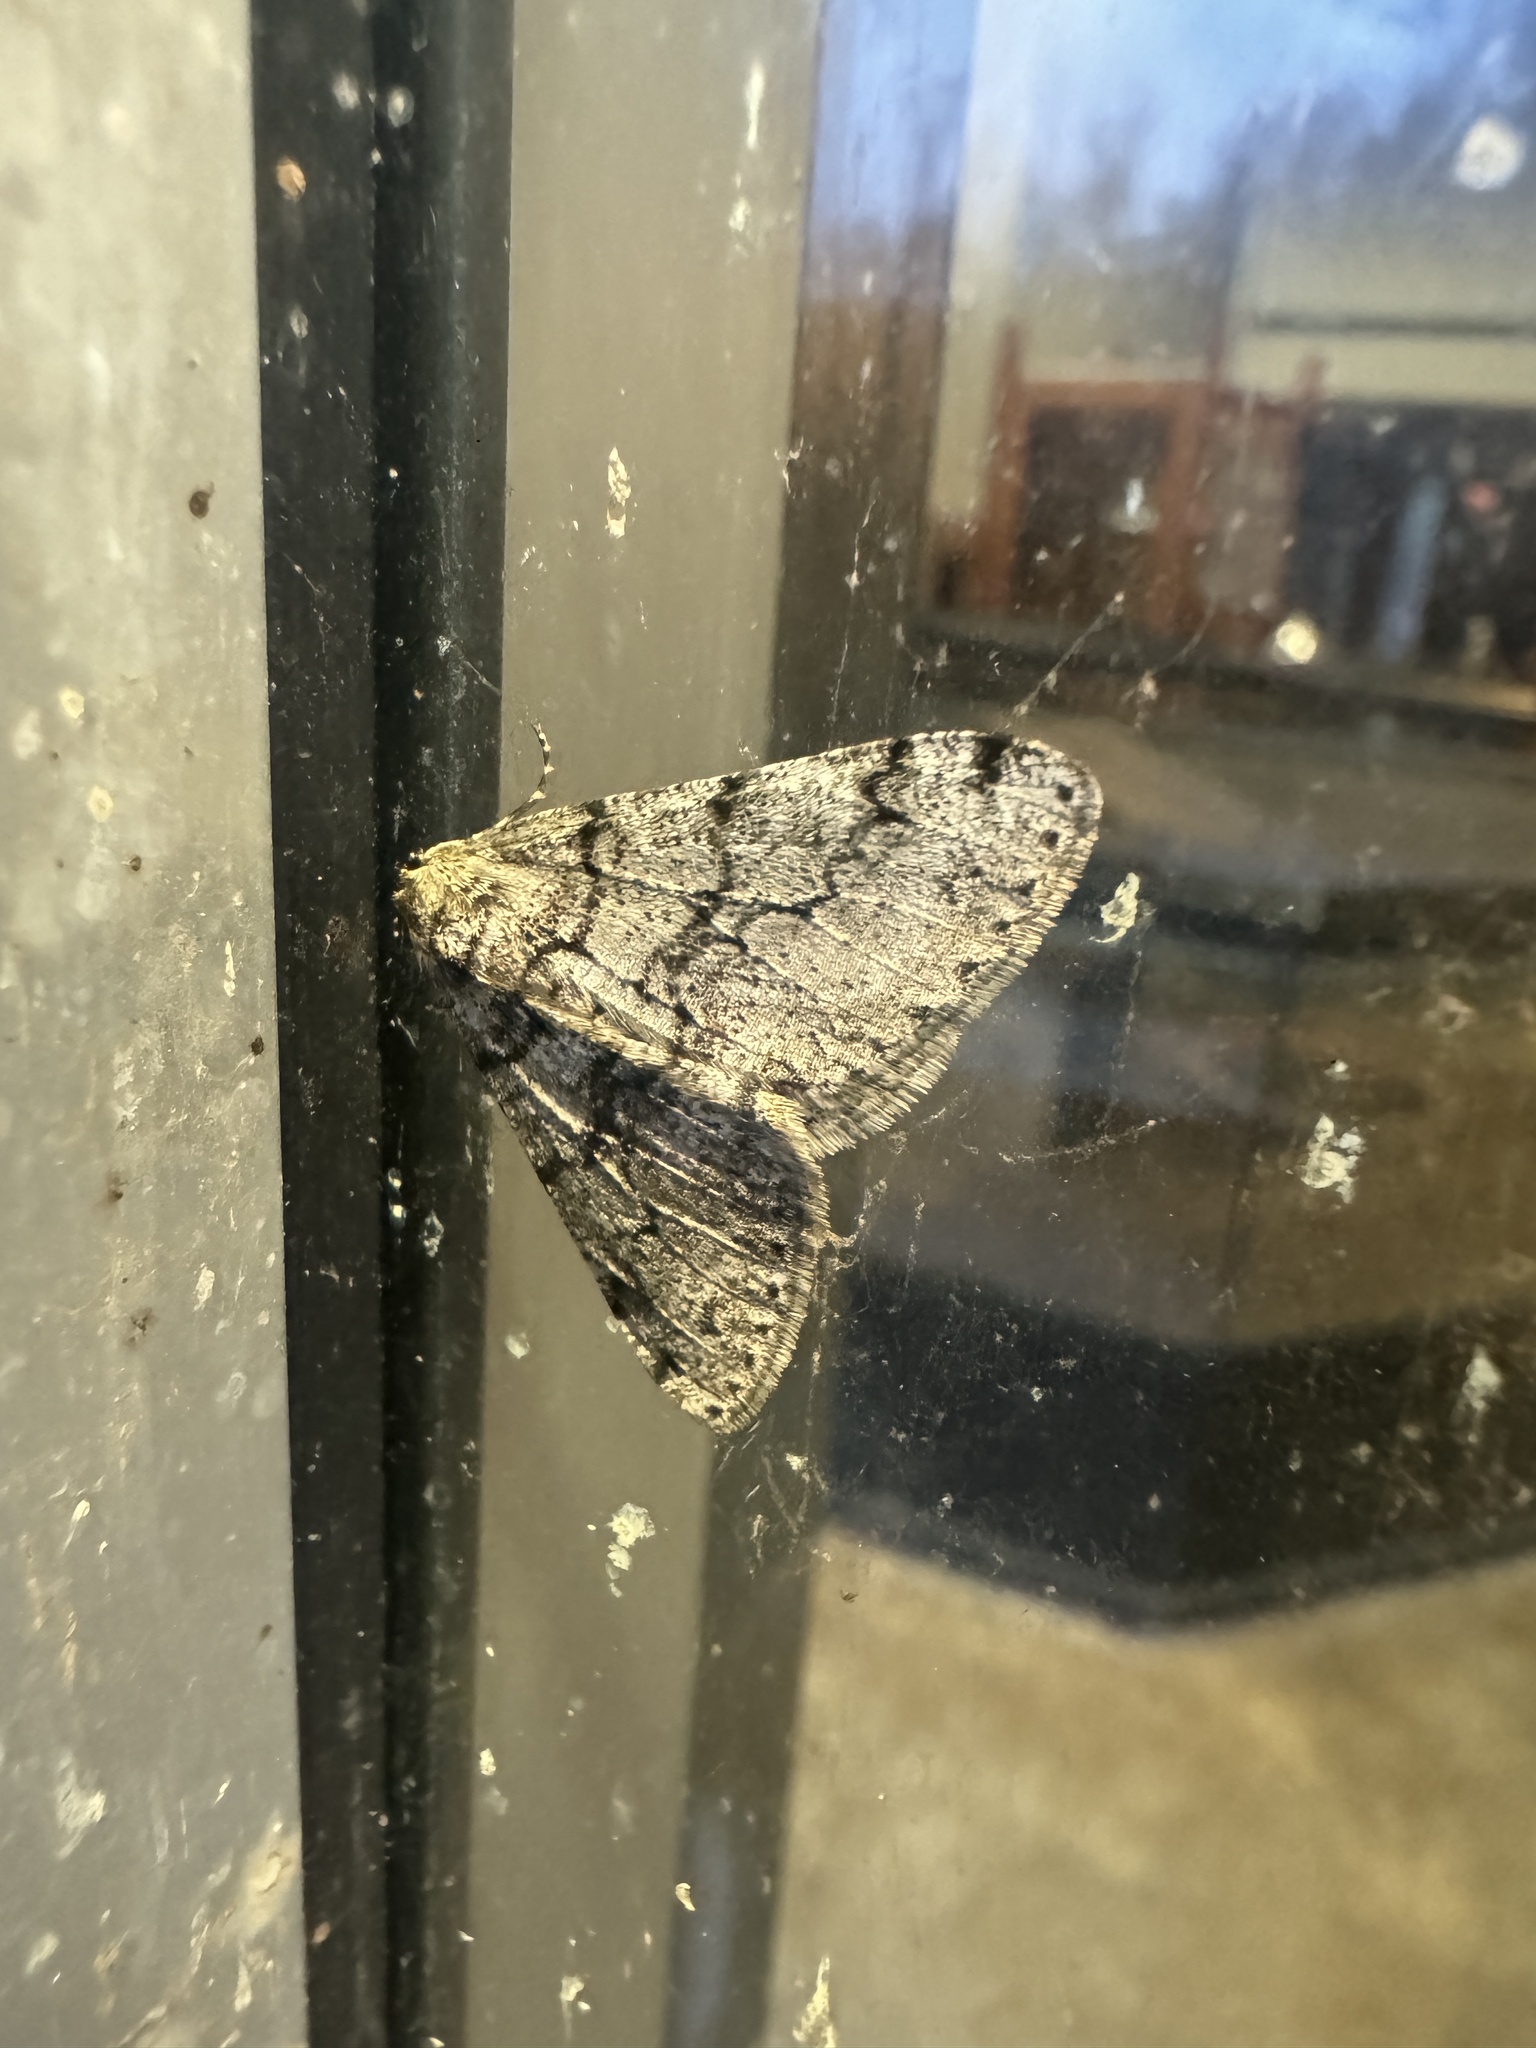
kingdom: Animalia
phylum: Arthropoda
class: Insecta
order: Lepidoptera
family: Geometridae
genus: Phigalia
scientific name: Phigalia denticulata
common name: Toothed phigalia
